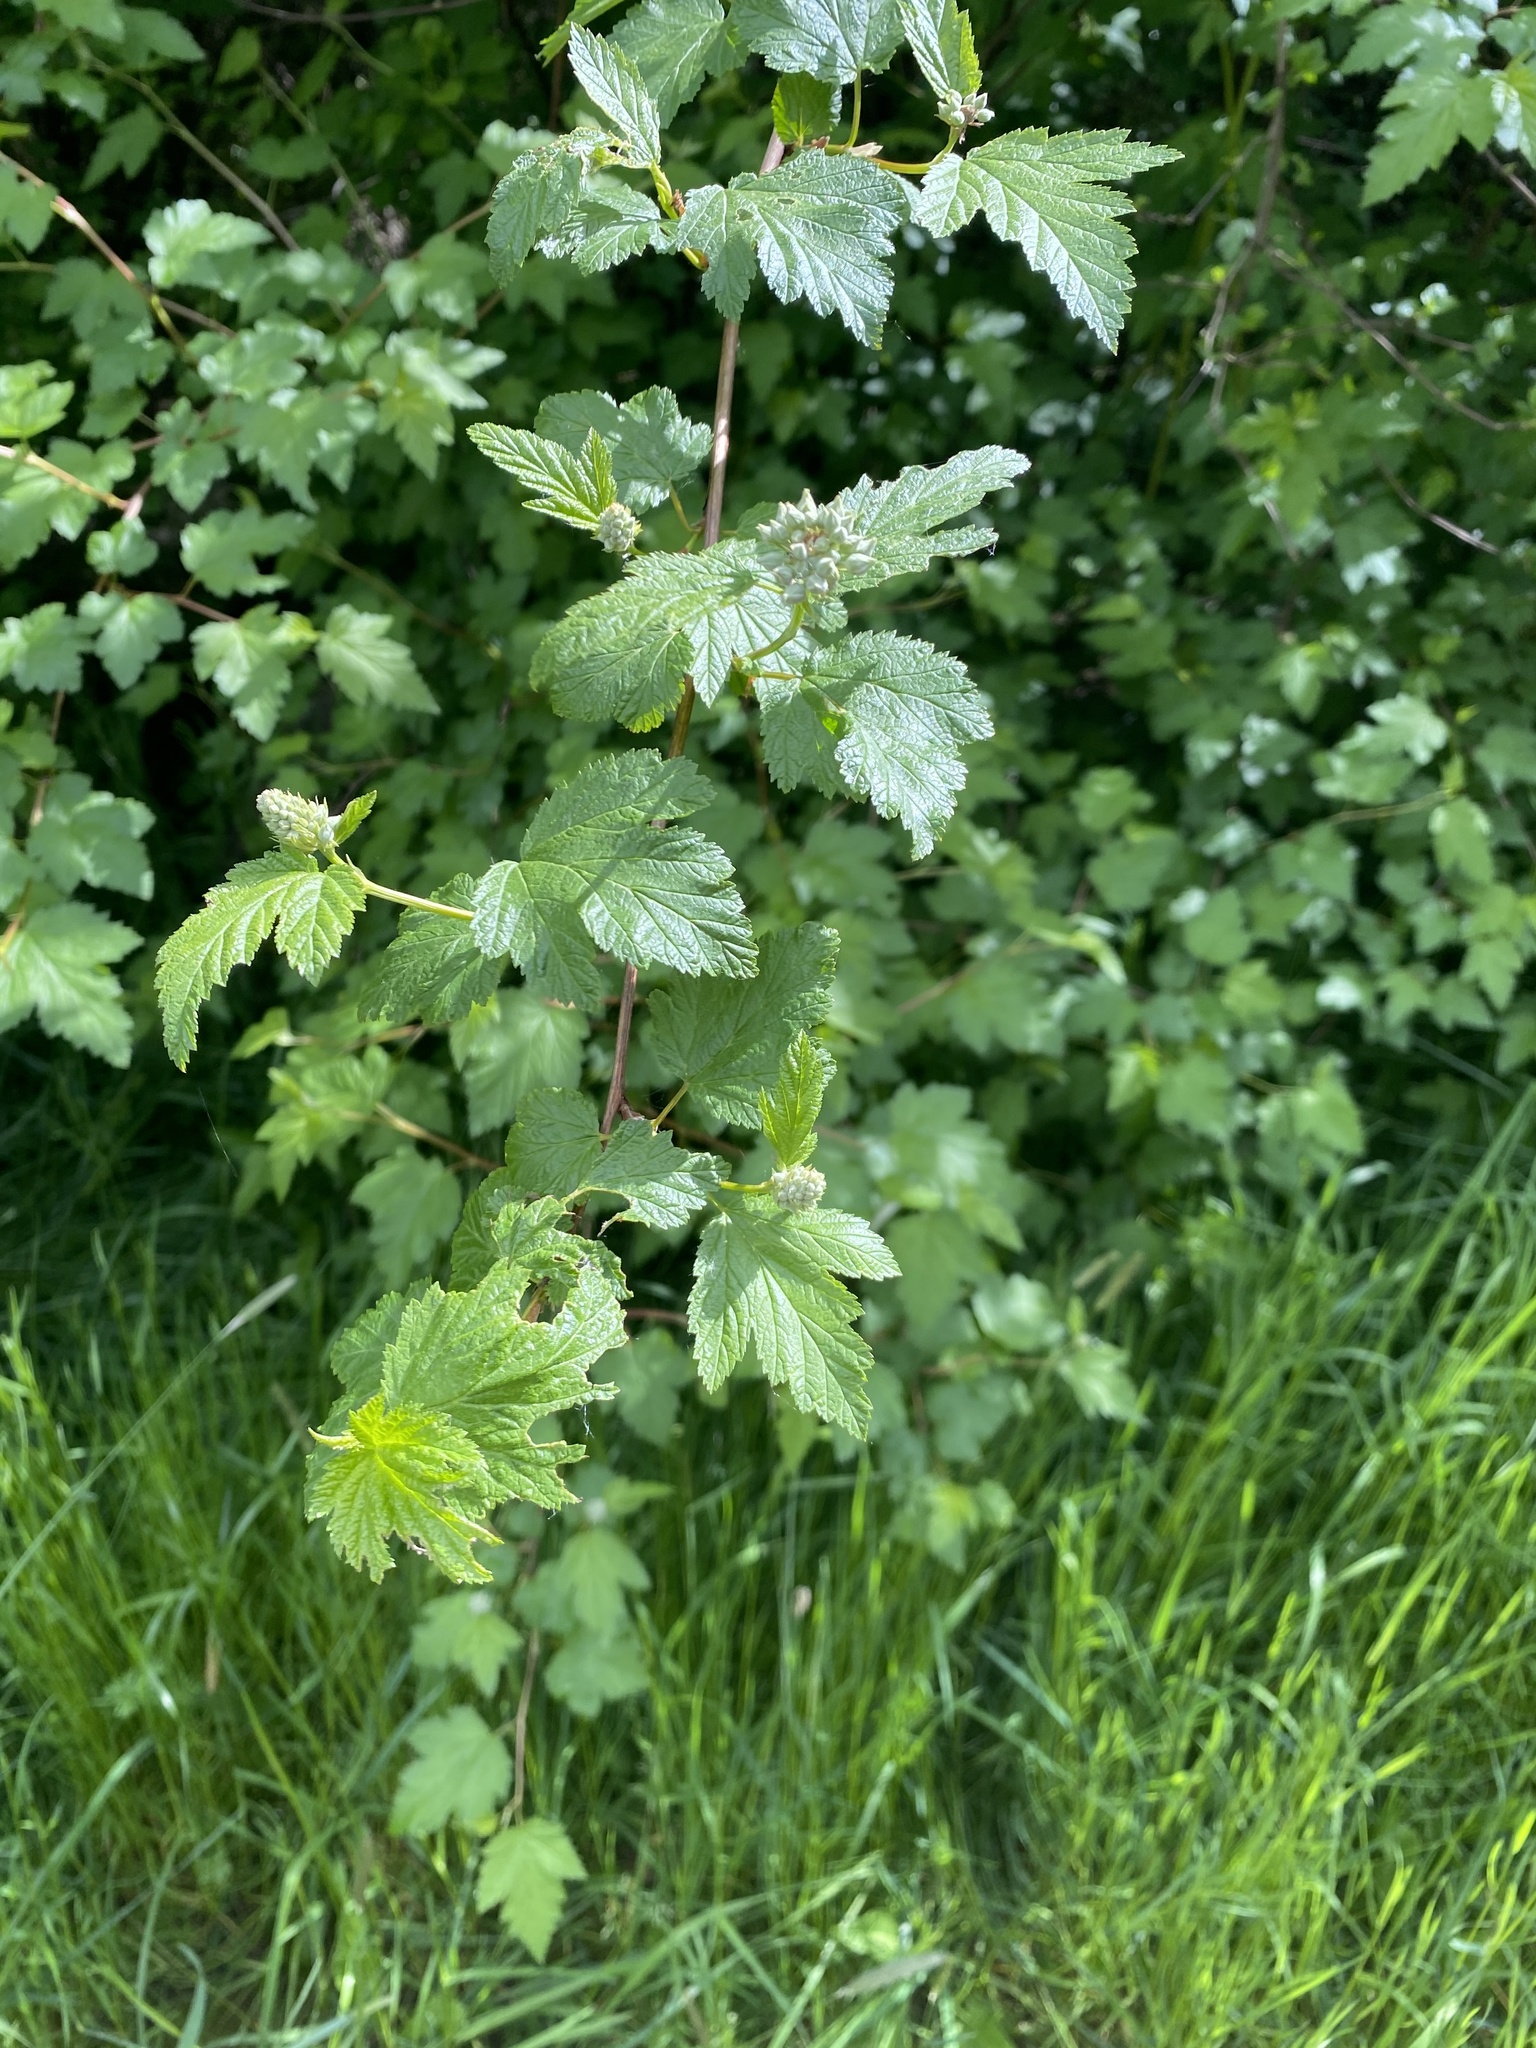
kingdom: Plantae
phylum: Tracheophyta
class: Magnoliopsida
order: Rosales
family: Rosaceae
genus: Physocarpus
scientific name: Physocarpus capitatus
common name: Pacific ninebark
